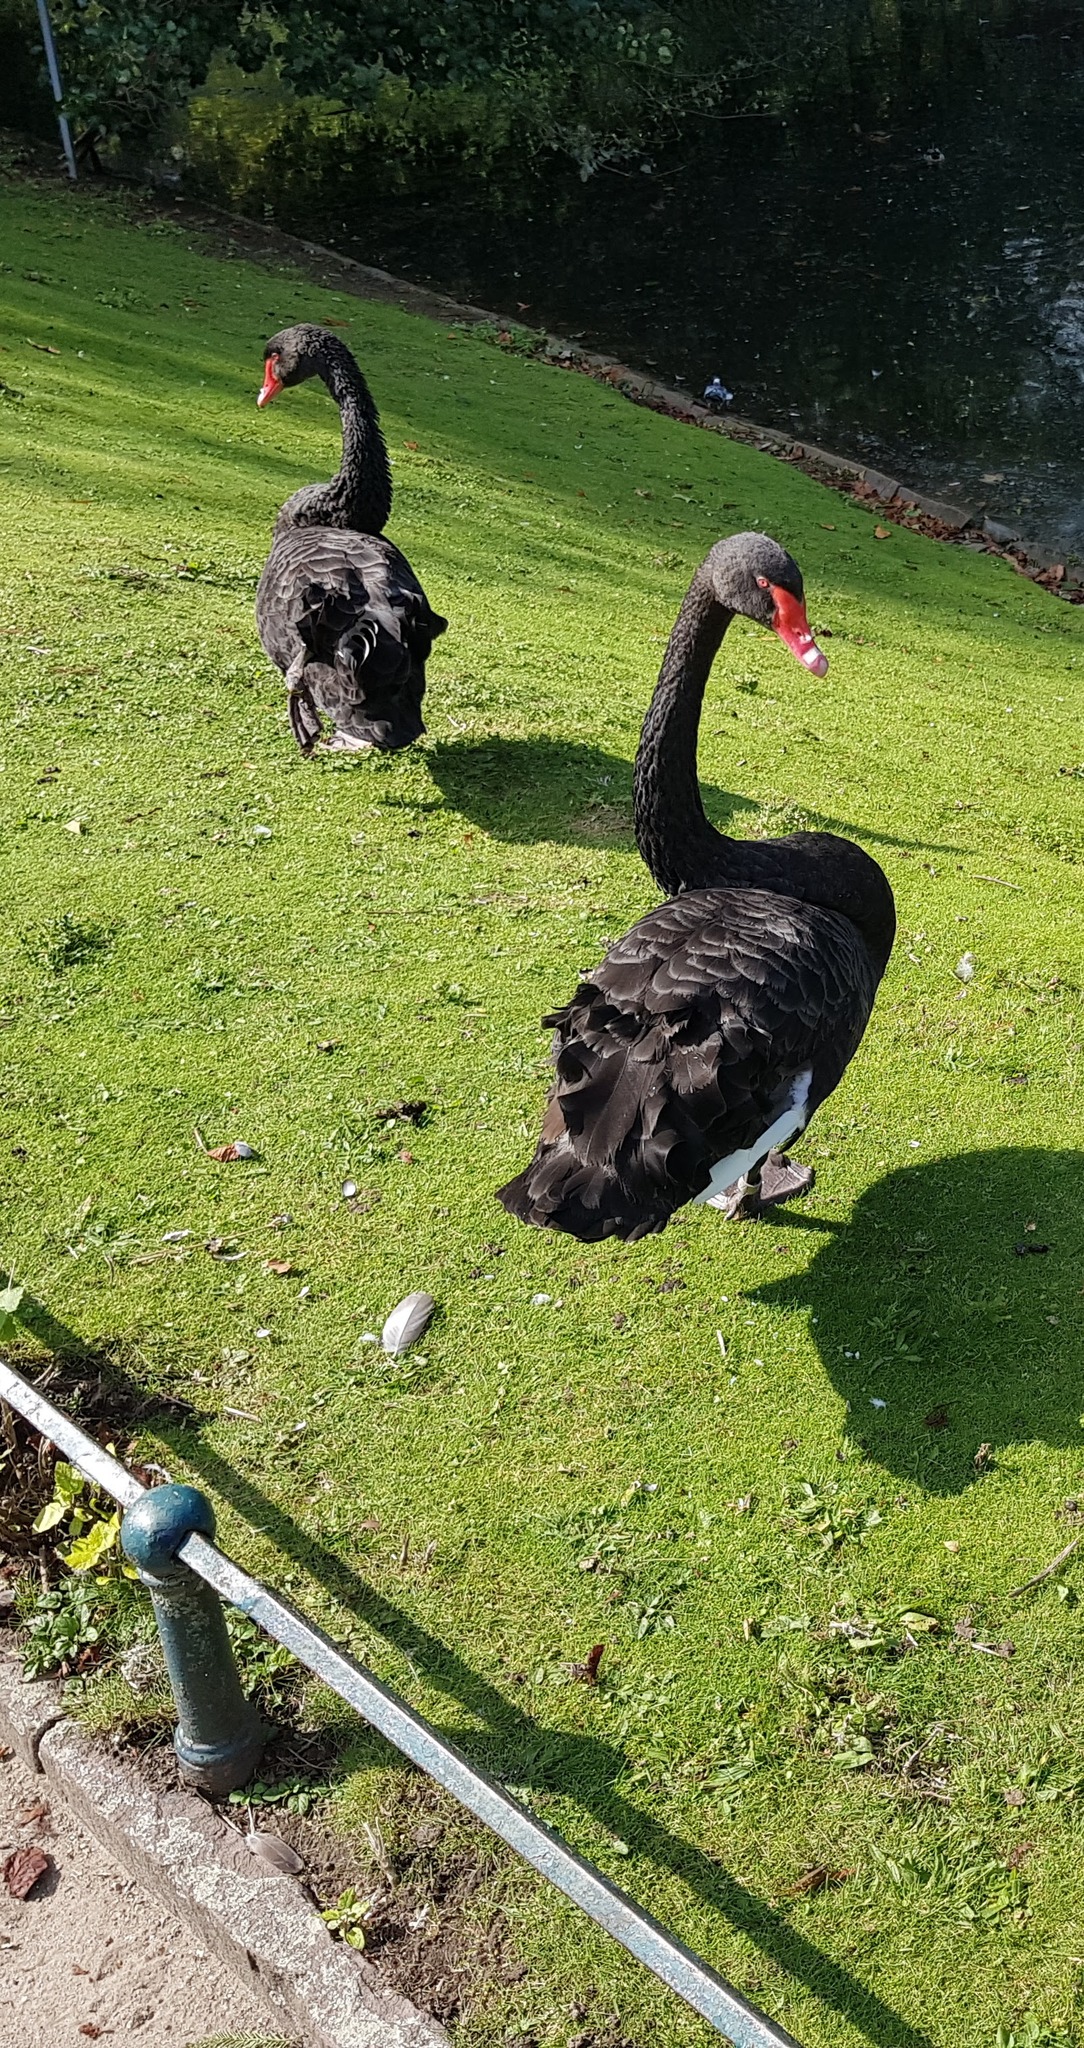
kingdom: Animalia
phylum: Chordata
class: Aves
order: Anseriformes
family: Anatidae
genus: Cygnus
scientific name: Cygnus atratus
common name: Black swan
